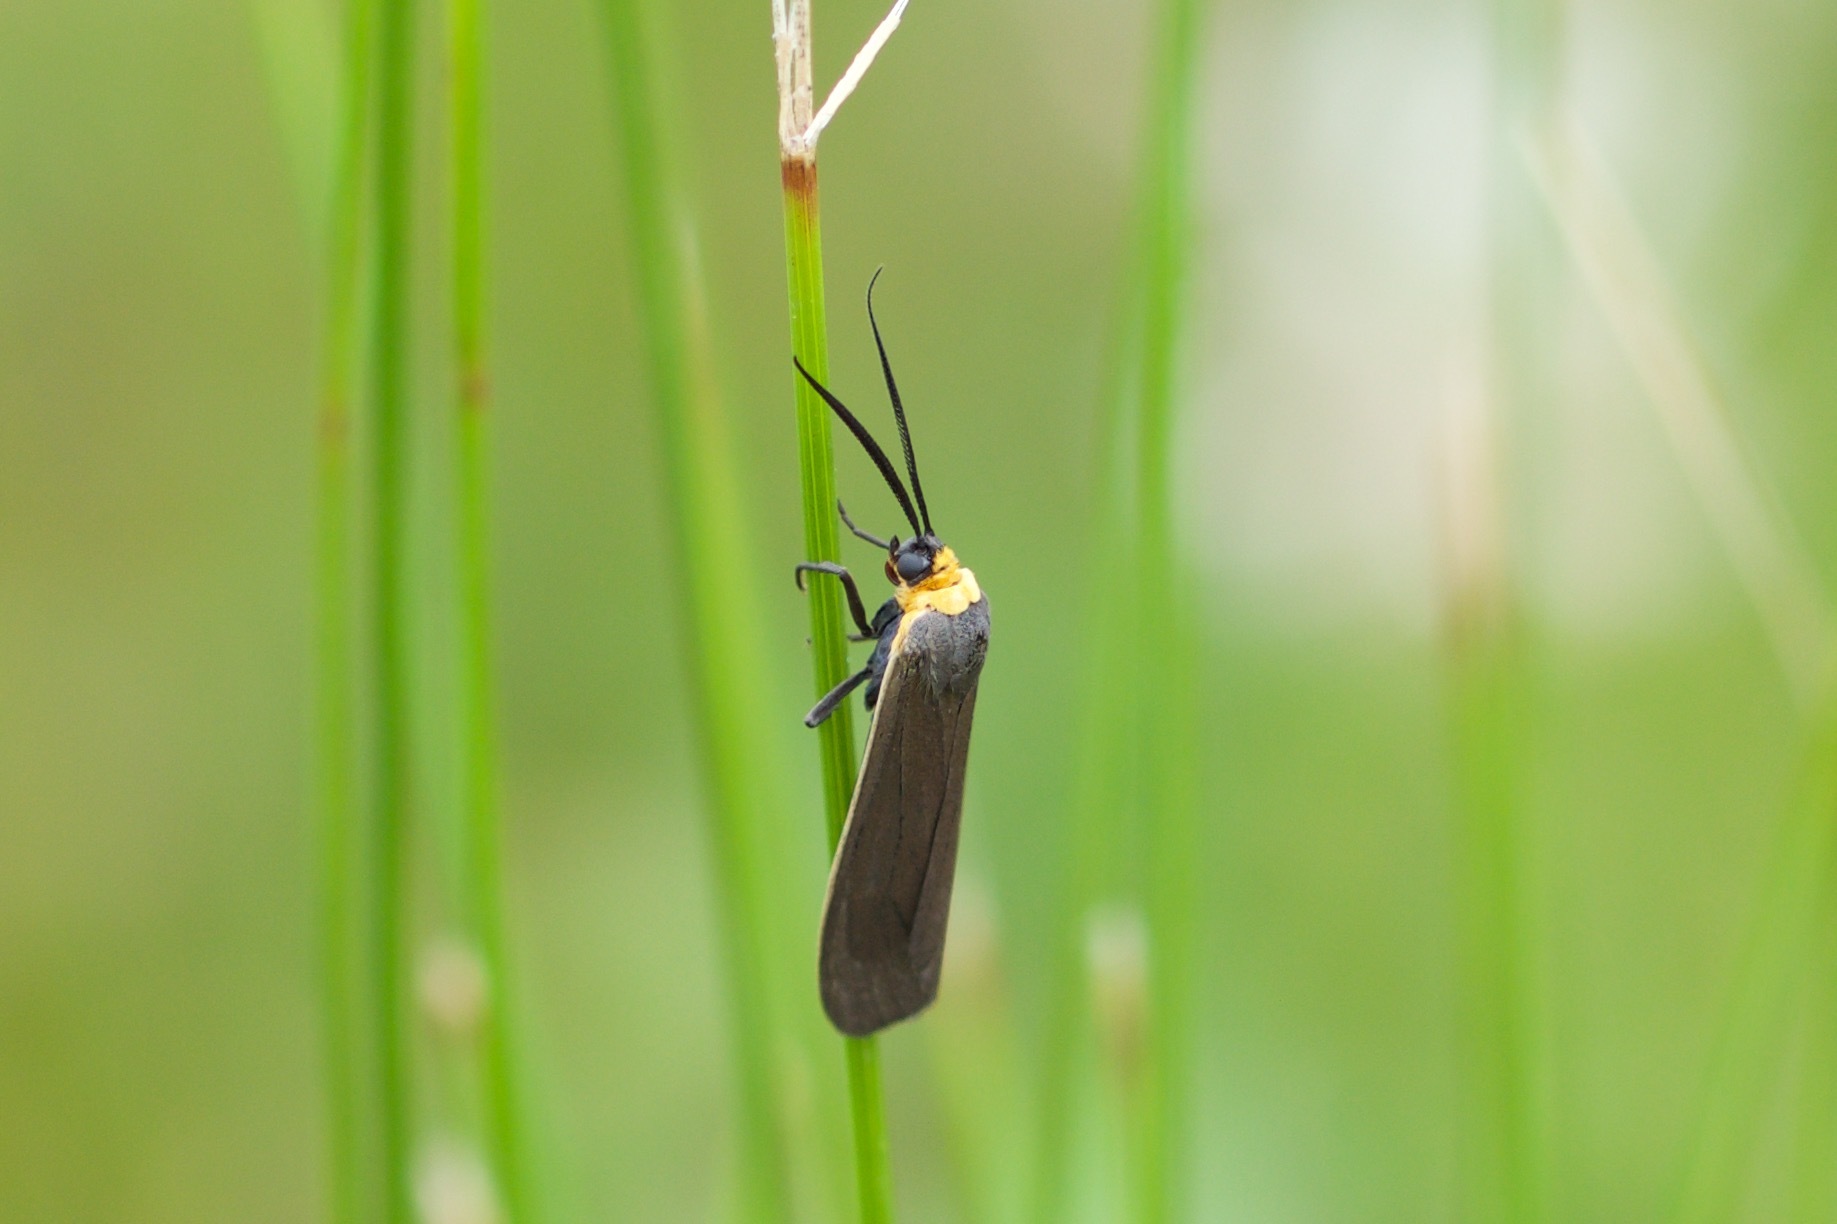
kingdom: Animalia
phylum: Arthropoda
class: Insecta
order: Lepidoptera
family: Erebidae
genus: Cisseps
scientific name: Cisseps fulvicollis
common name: Yellow-collared scape moth
